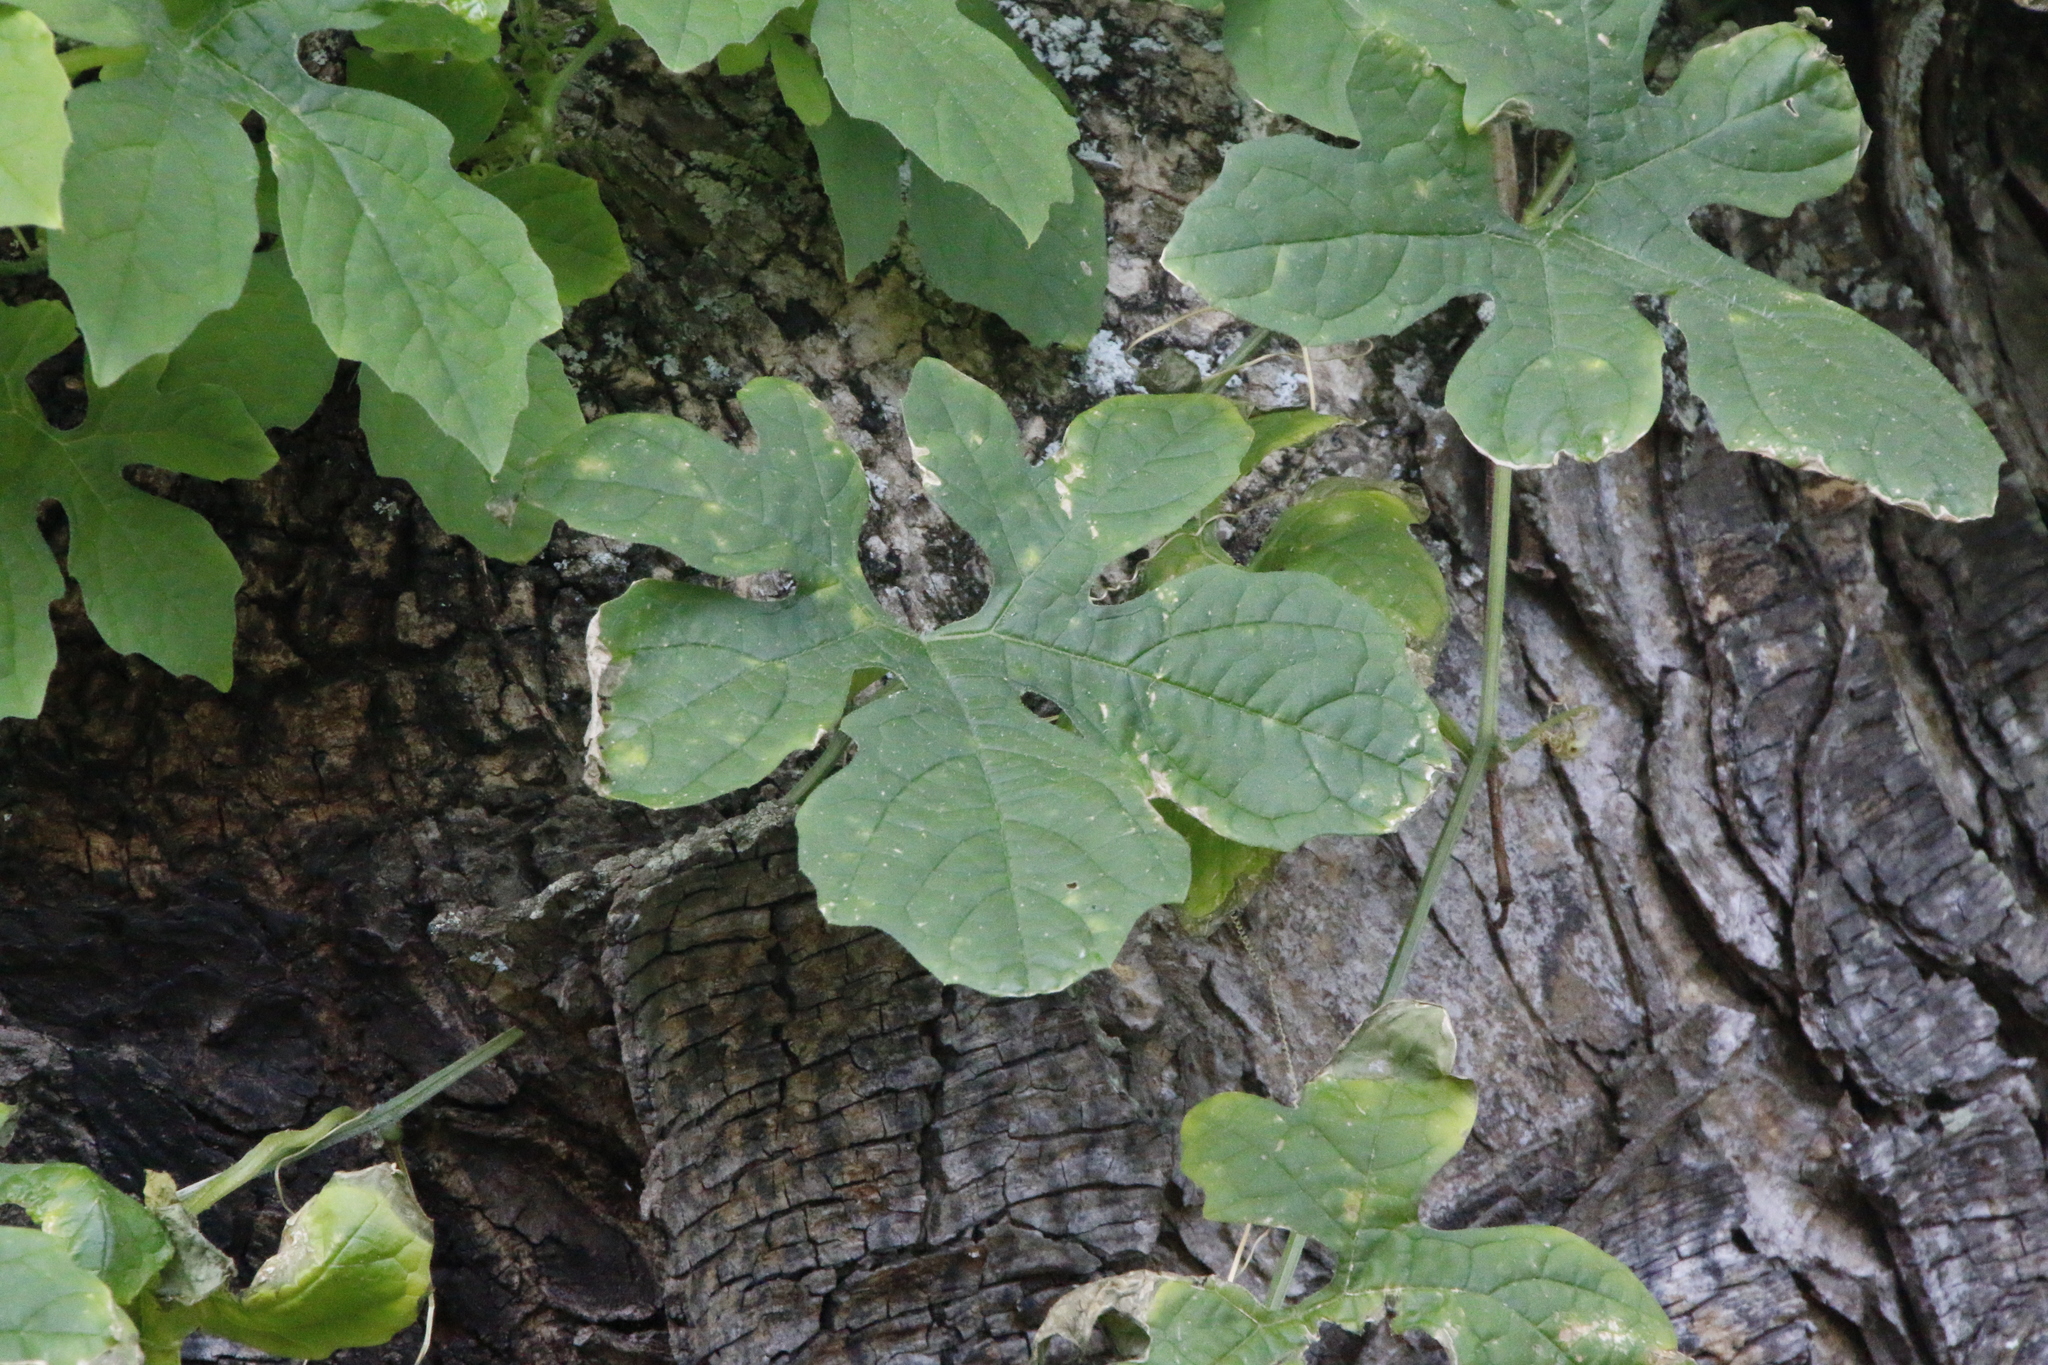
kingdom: Plantae
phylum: Tracheophyta
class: Magnoliopsida
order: Cucurbitales
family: Cucurbitaceae
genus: Momordica
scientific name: Momordica charantia
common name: Balsampear
